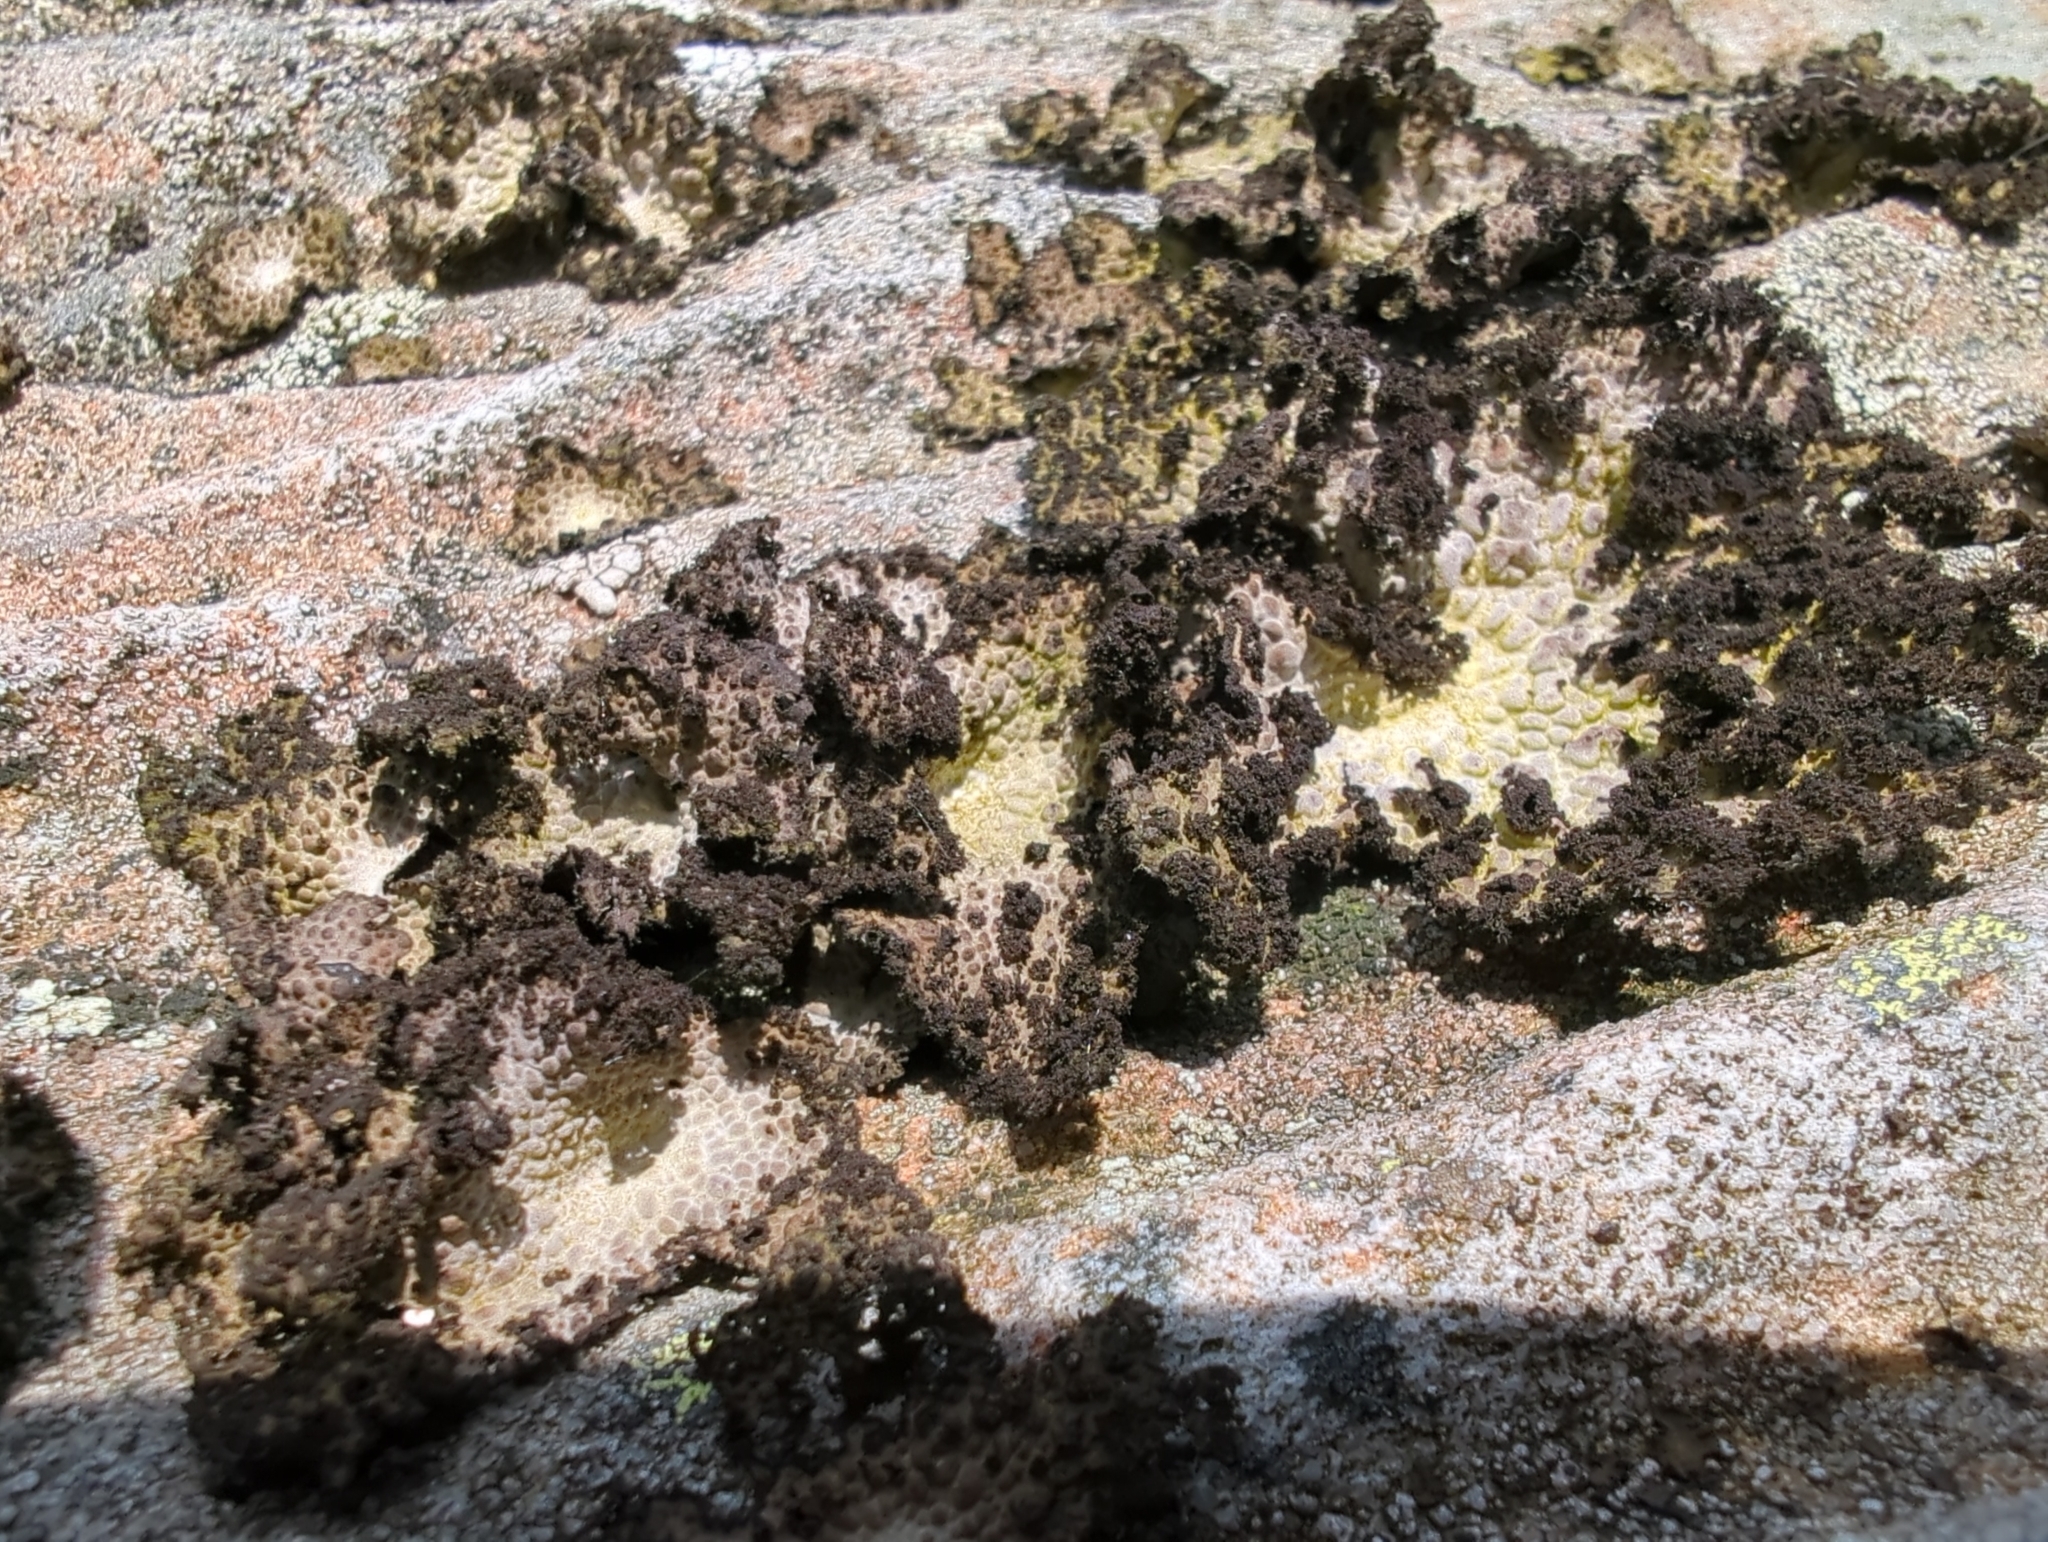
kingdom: Fungi
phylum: Ascomycota
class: Lecanoromycetes
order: Umbilicariales
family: Umbilicariaceae
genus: Lasallia
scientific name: Lasallia pustulata
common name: Blistered toadskin lichen
